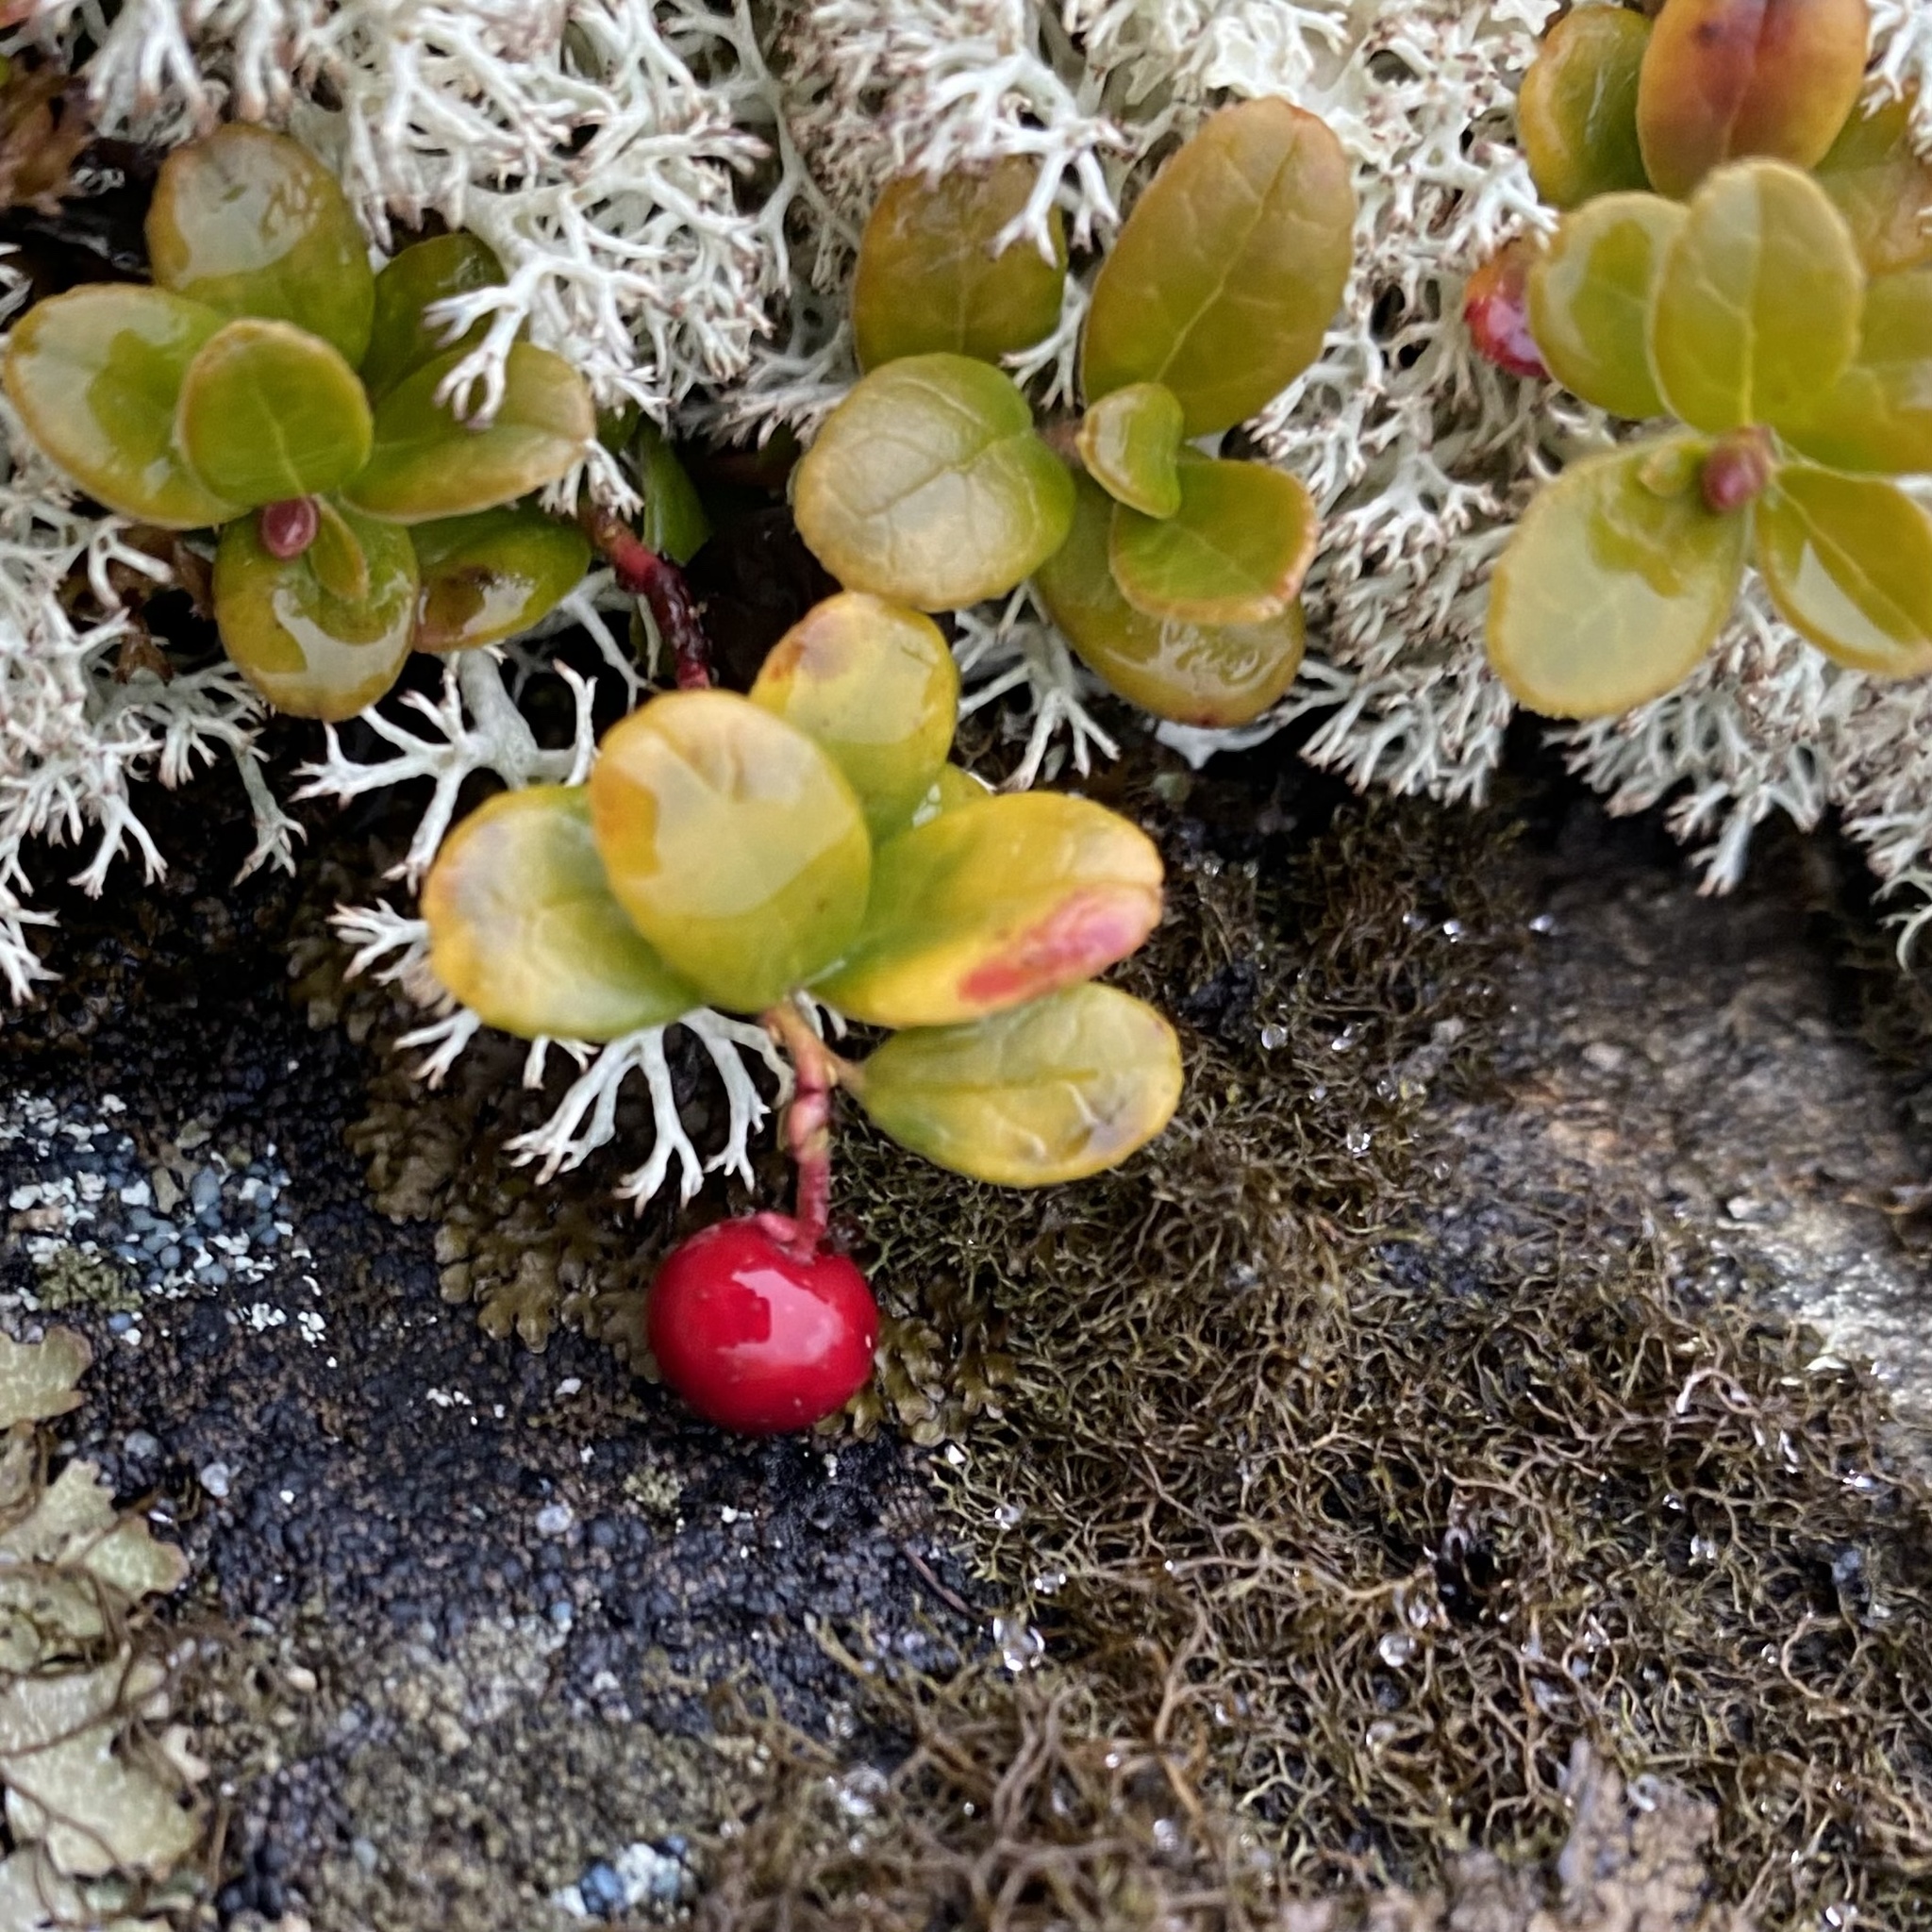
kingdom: Plantae
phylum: Tracheophyta
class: Magnoliopsida
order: Ericales
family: Ericaceae
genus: Vaccinium
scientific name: Vaccinium vitis-idaea
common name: Cowberry
